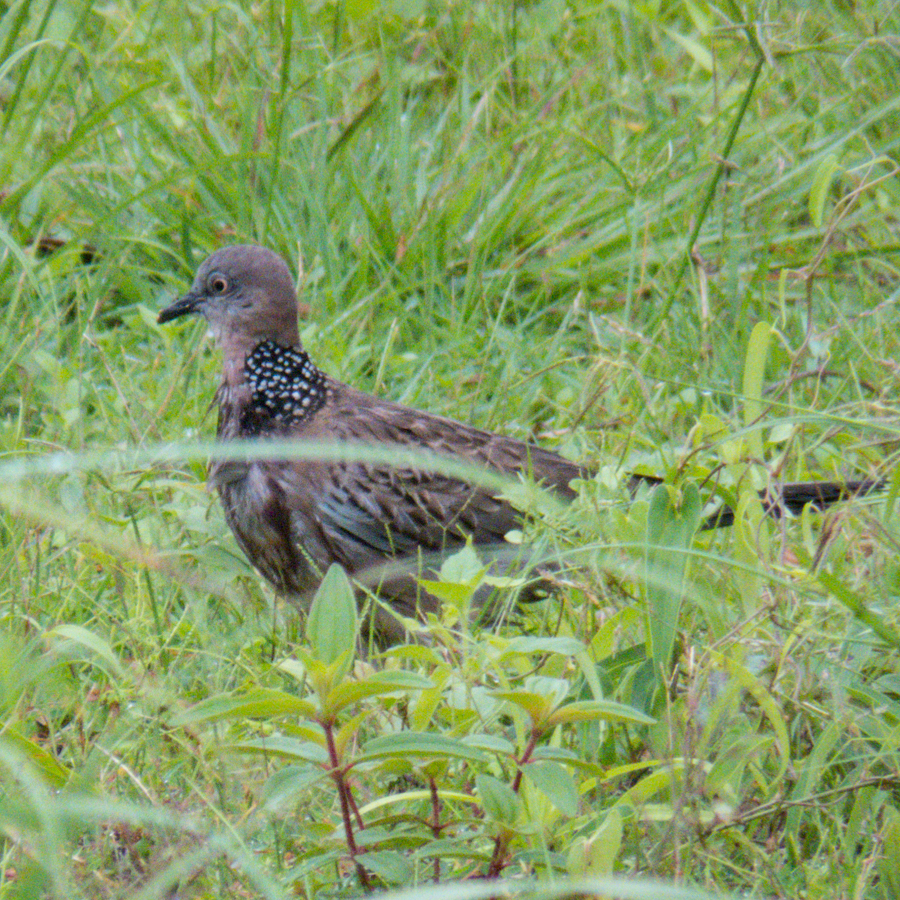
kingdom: Animalia
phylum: Chordata
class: Aves
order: Columbiformes
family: Columbidae
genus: Spilopelia
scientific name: Spilopelia chinensis
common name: Spotted dove
